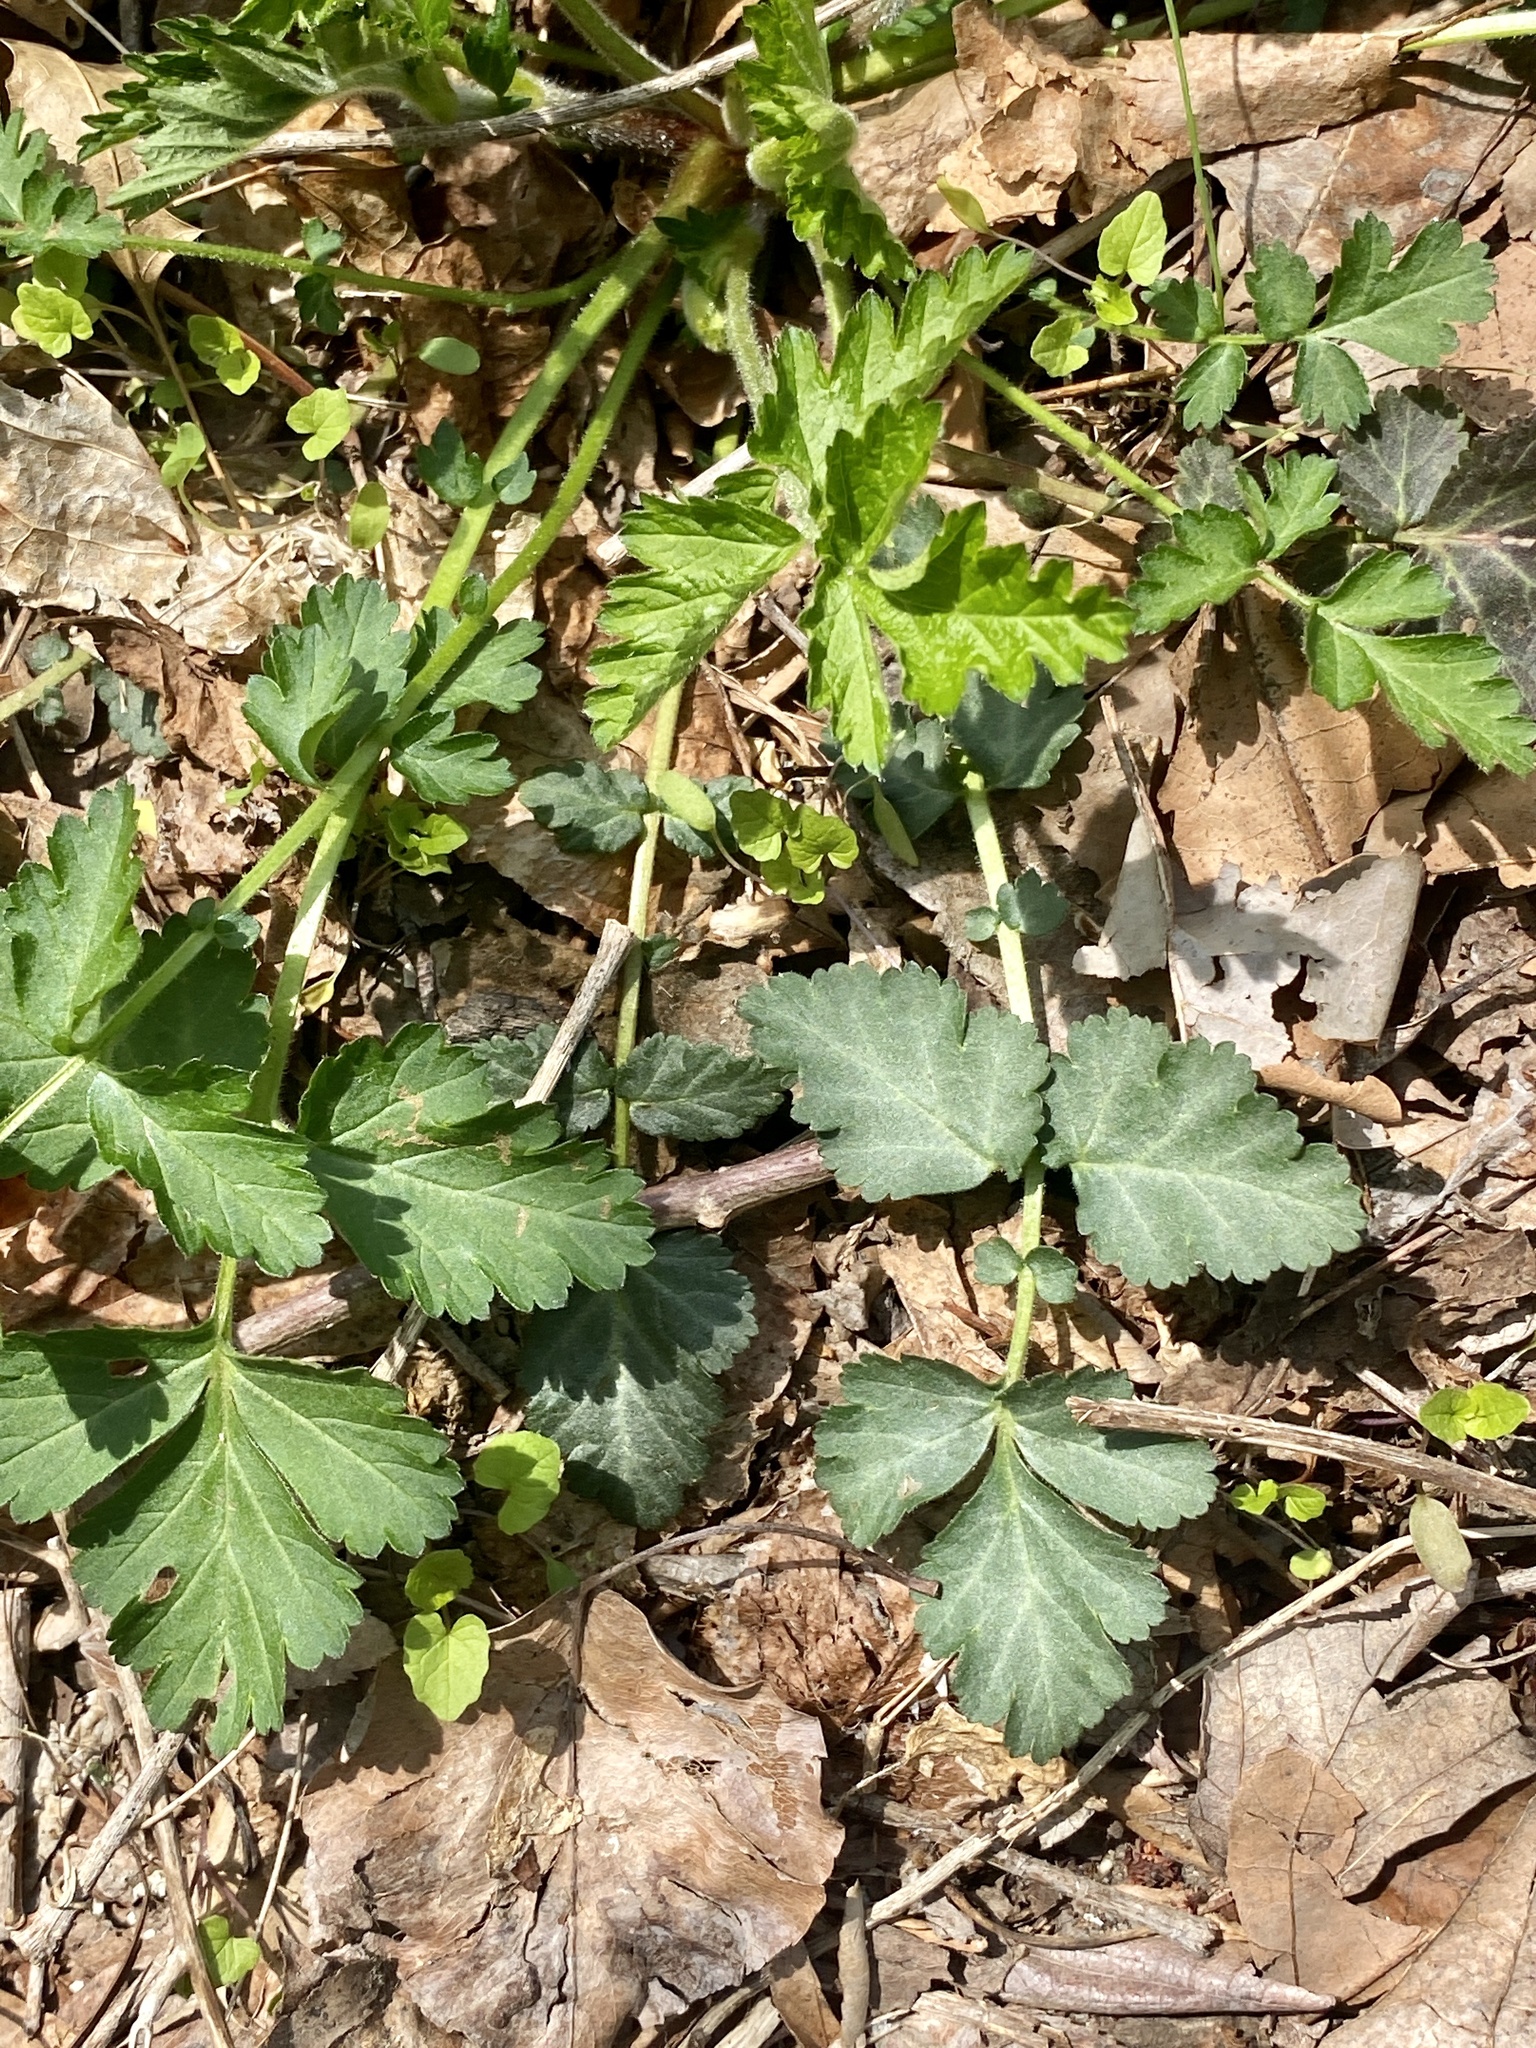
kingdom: Plantae
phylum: Tracheophyta
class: Magnoliopsida
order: Rosales
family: Rosaceae
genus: Geum
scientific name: Geum canadense
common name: White avens
